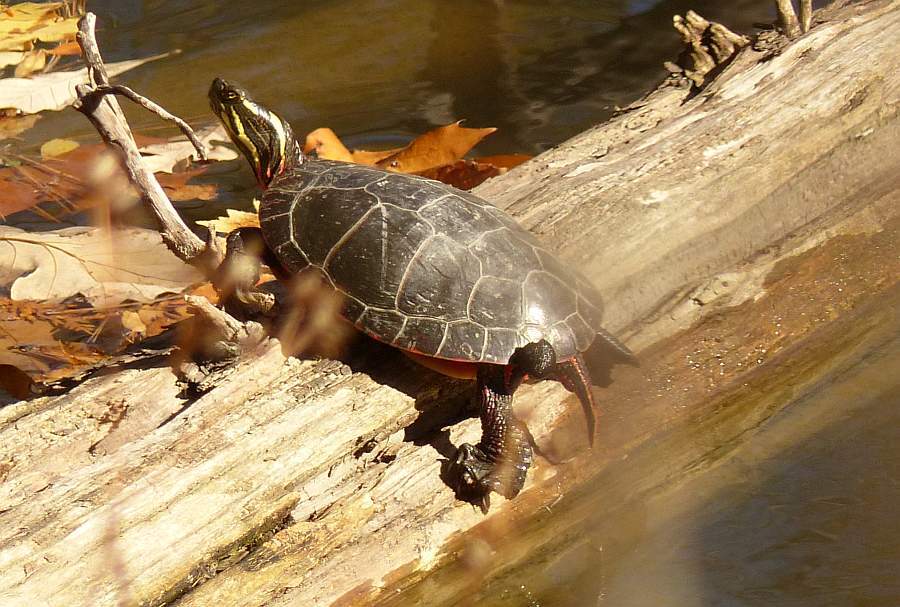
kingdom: Animalia
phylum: Chordata
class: Testudines
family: Emydidae
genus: Chrysemys
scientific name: Chrysemys picta
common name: Painted turtle
